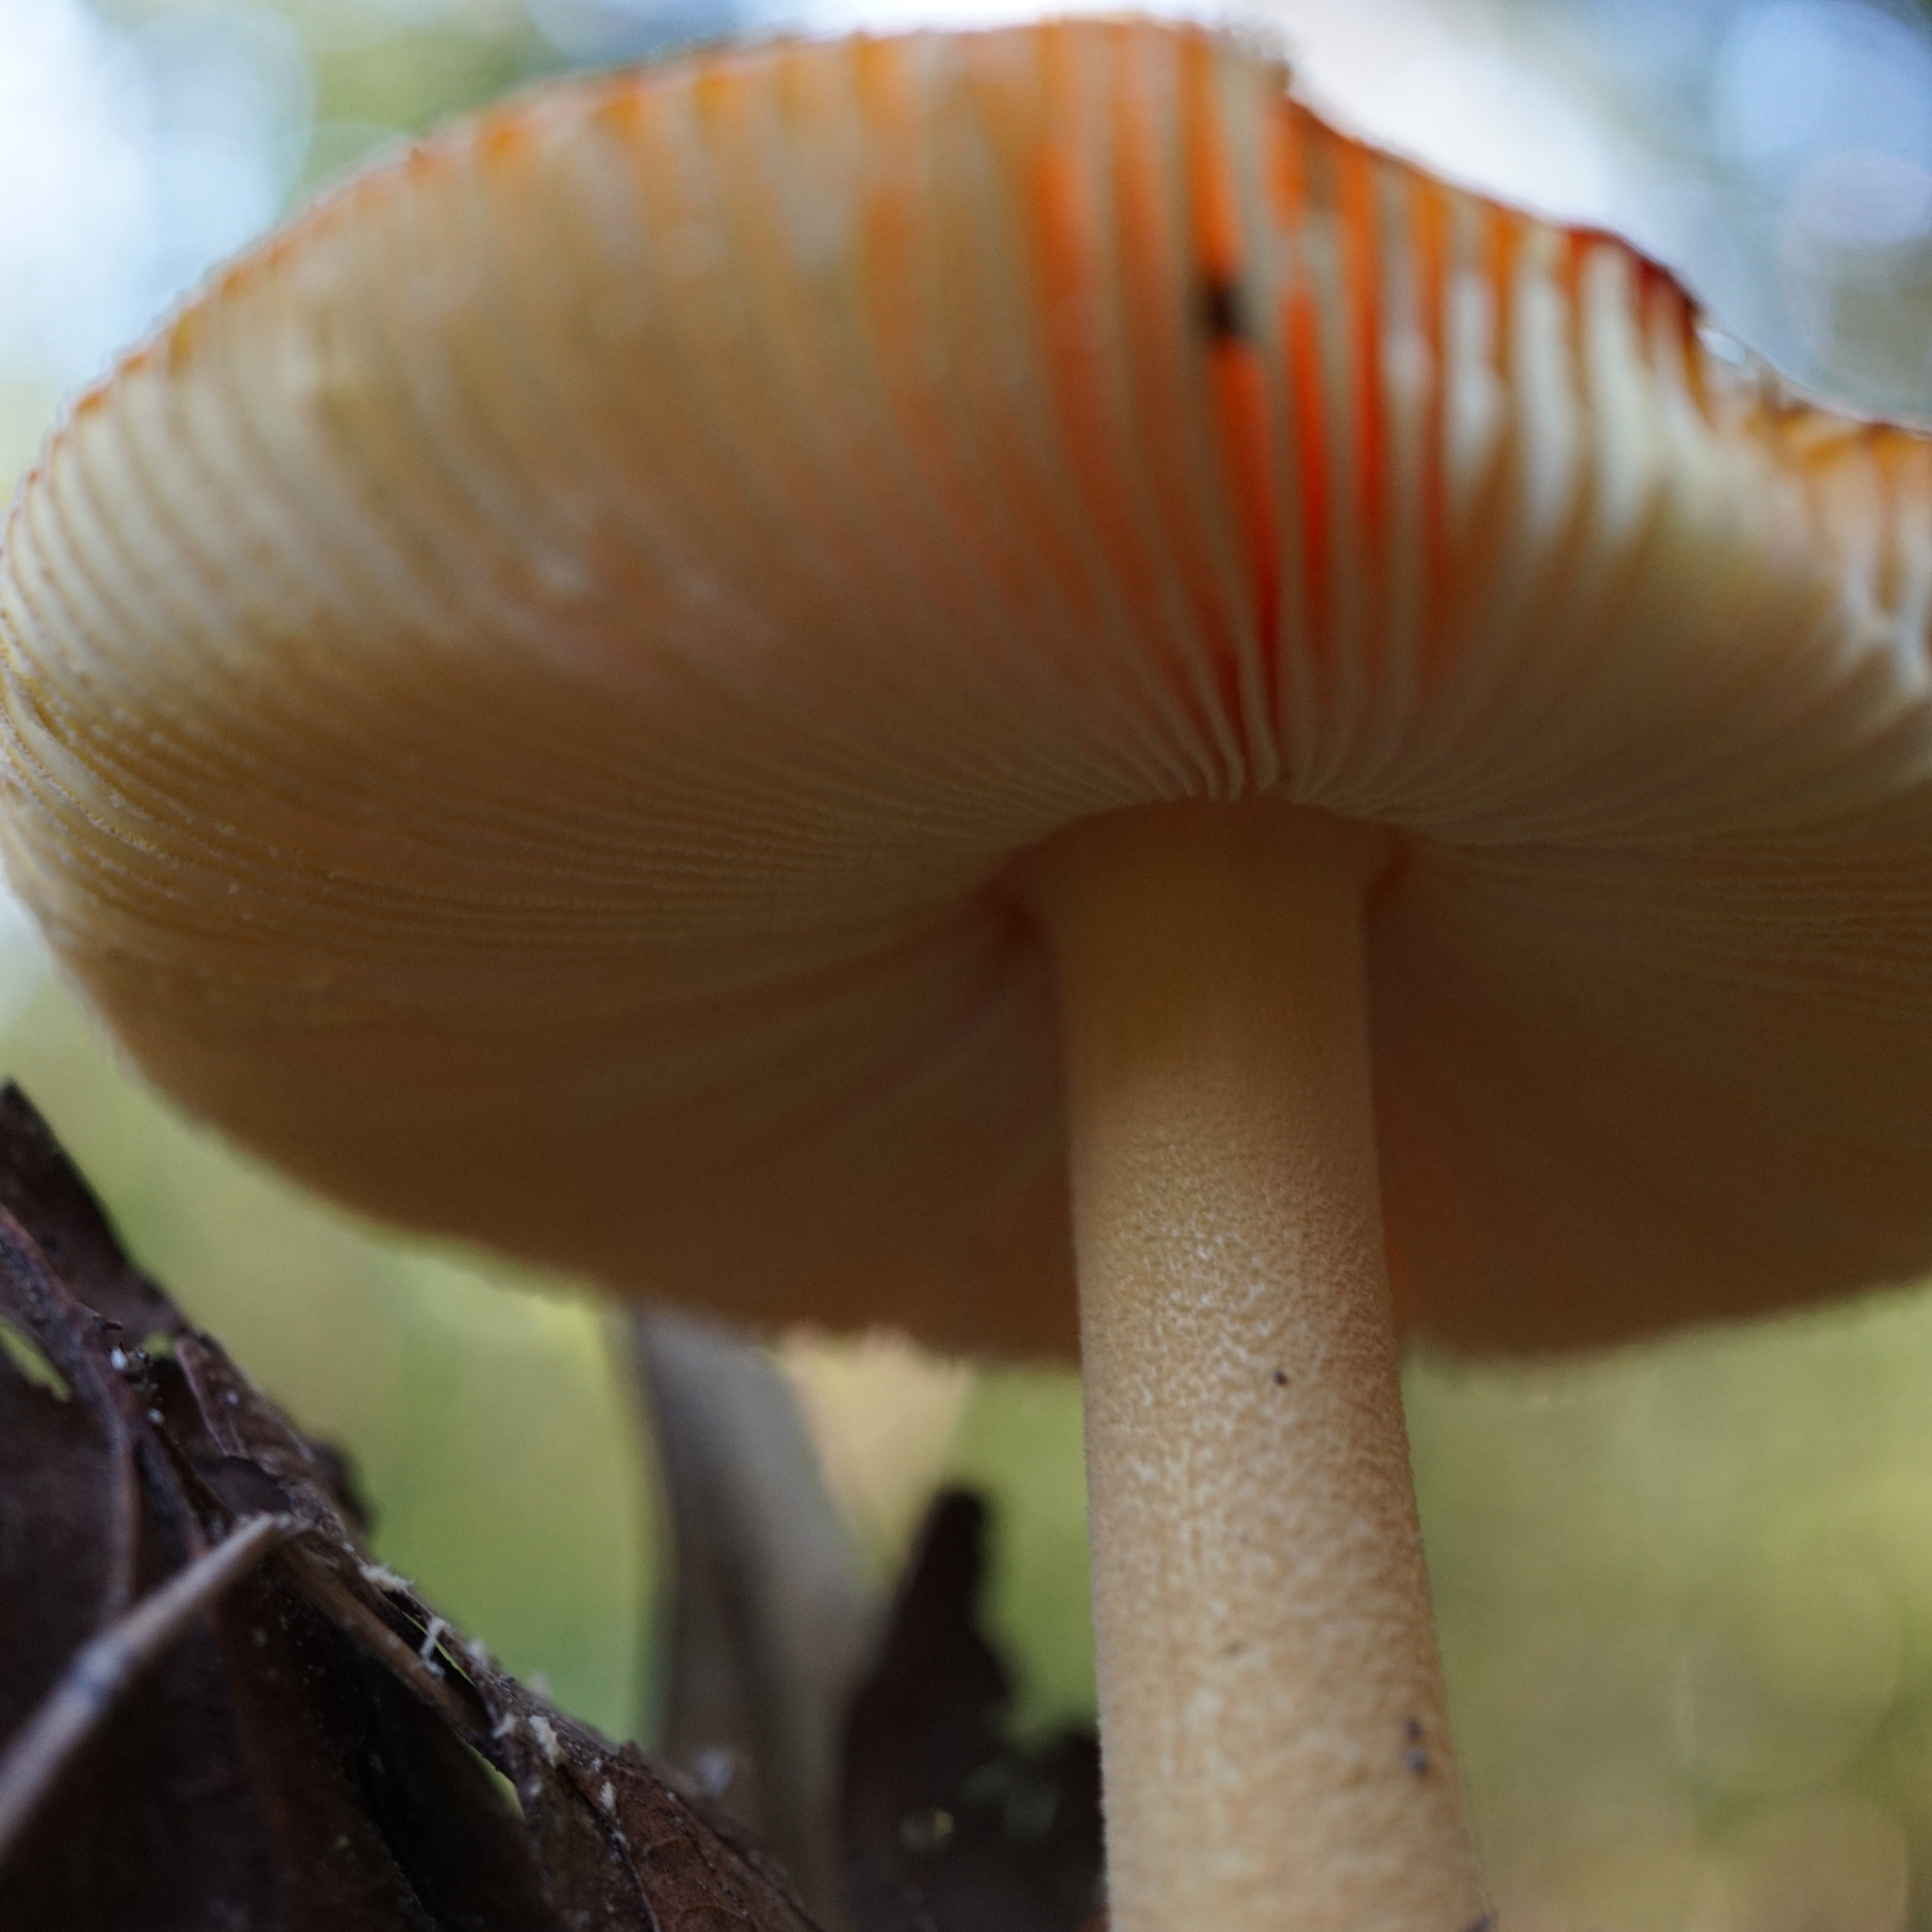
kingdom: Fungi
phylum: Basidiomycota
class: Agaricomycetes
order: Agaricales
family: Amanitaceae
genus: Amanita
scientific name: Amanita parcivolvata
